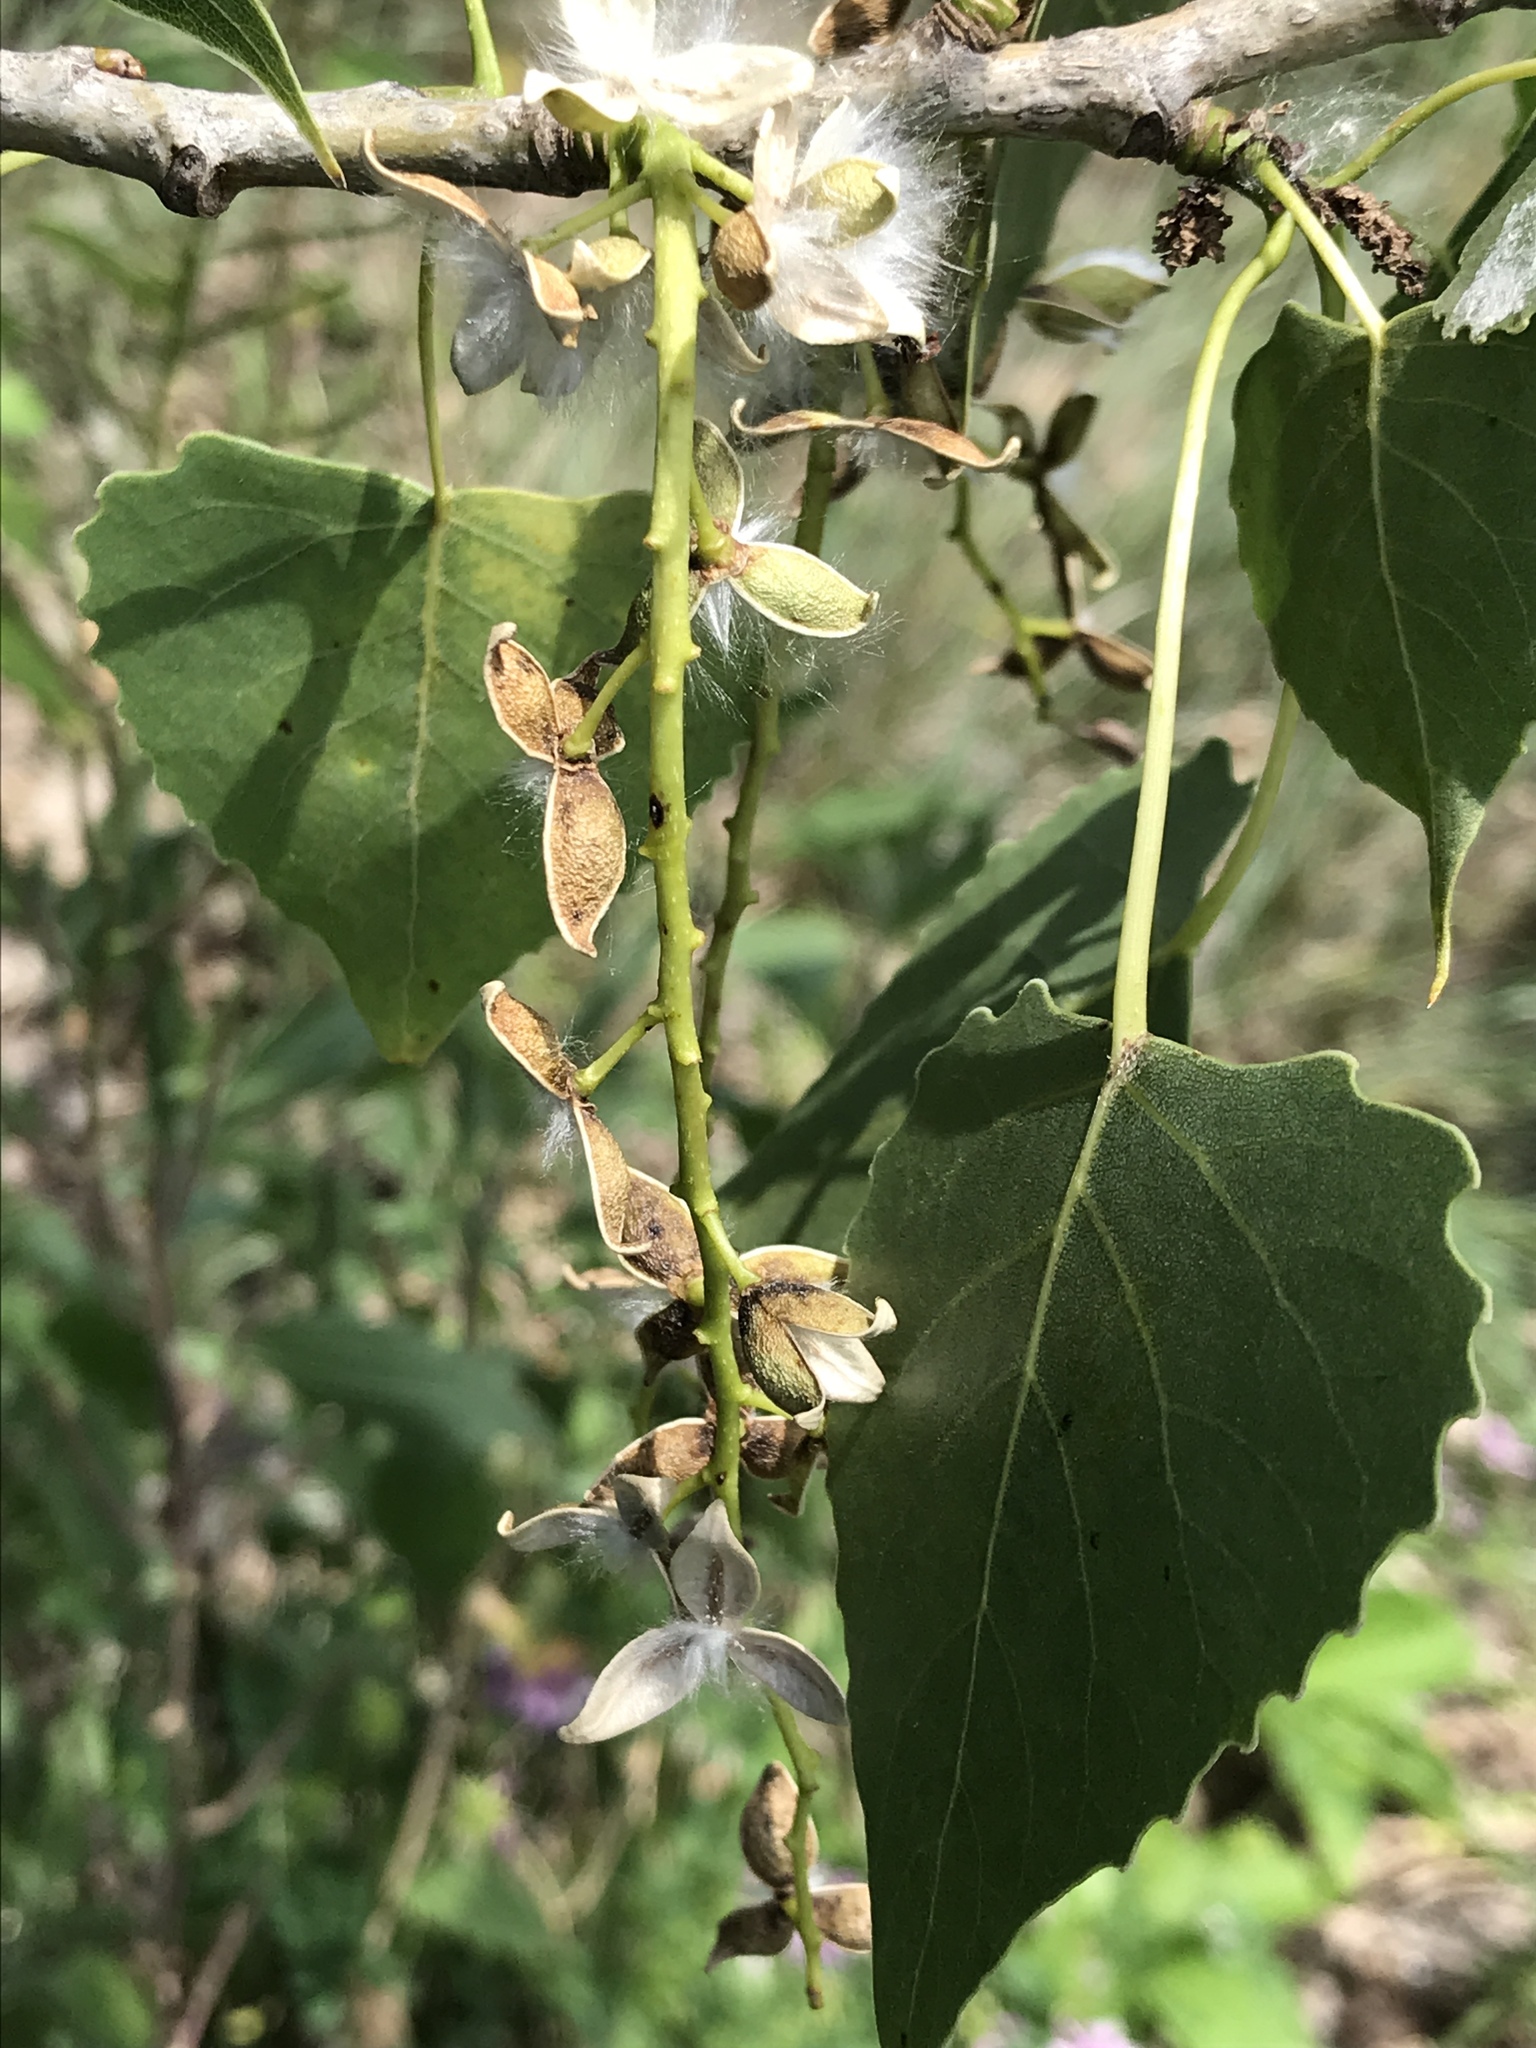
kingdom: Plantae
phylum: Tracheophyta
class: Magnoliopsida
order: Malpighiales
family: Salicaceae
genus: Populus
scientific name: Populus deltoides
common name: Eastern cottonwood
